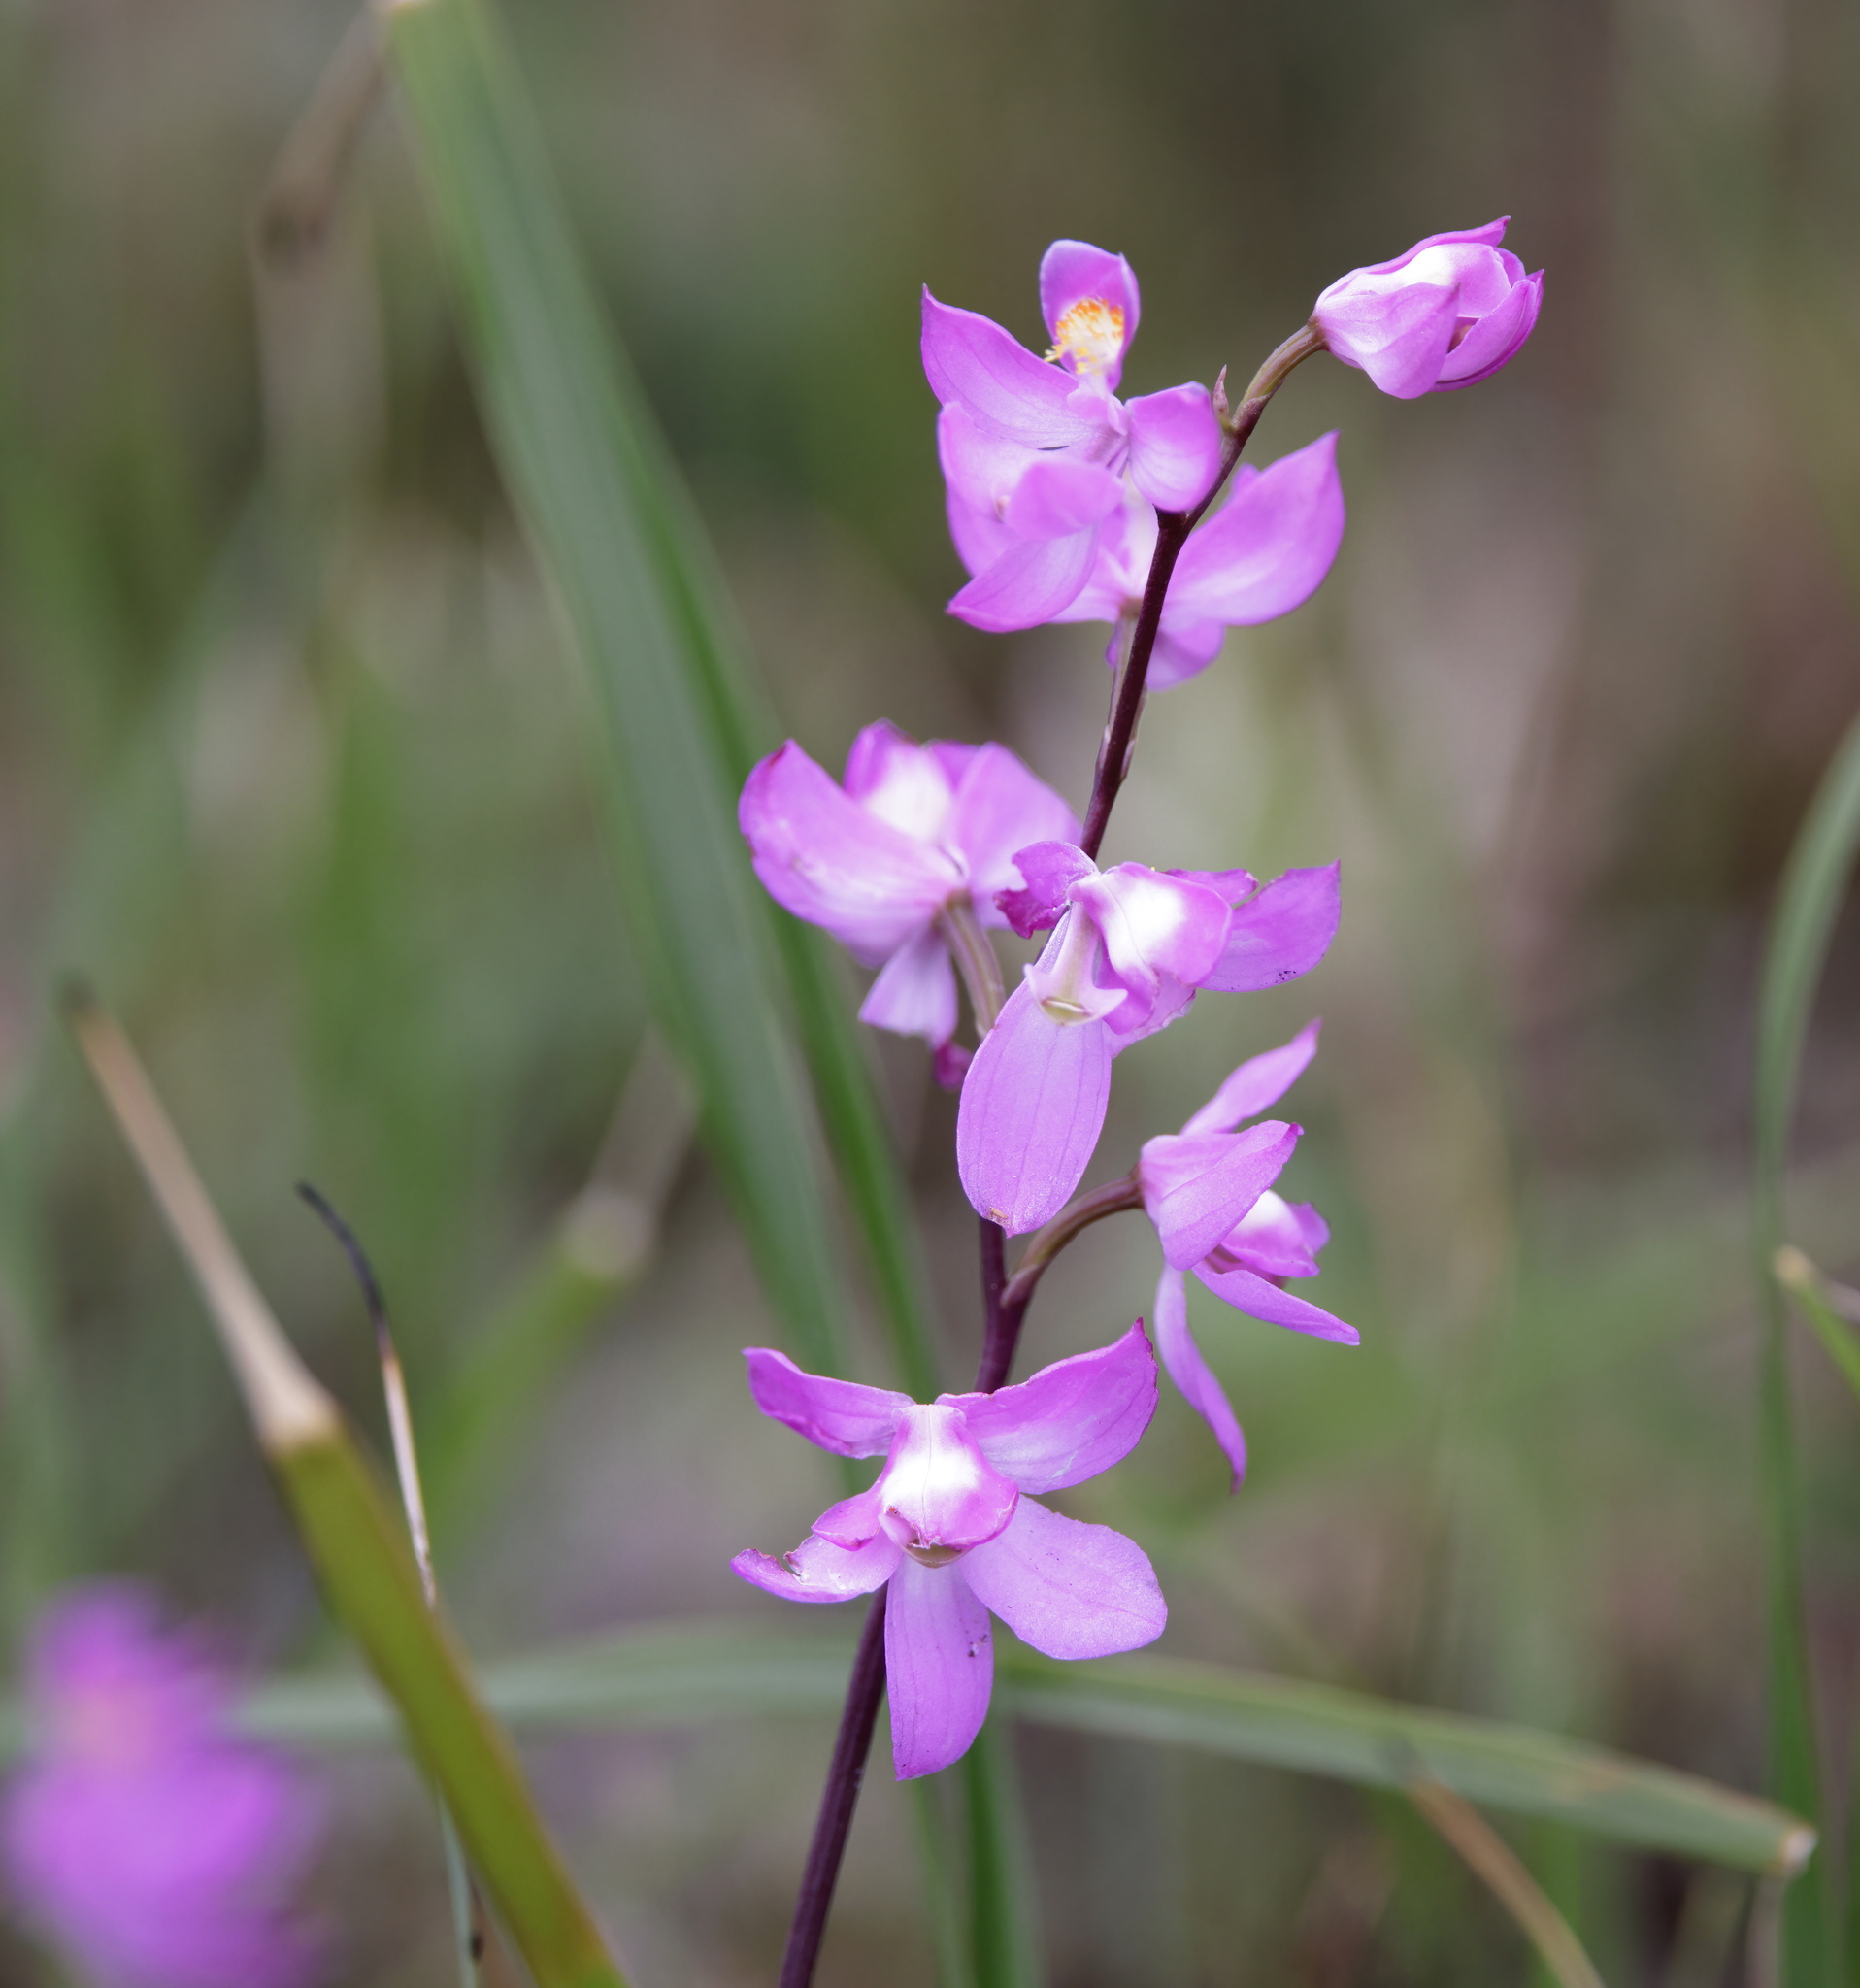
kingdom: Plantae
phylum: Tracheophyta
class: Liliopsida
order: Asparagales
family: Orchidaceae
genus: Calopogon
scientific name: Calopogon multiflorus
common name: Many-flowered grass-pink orchid
